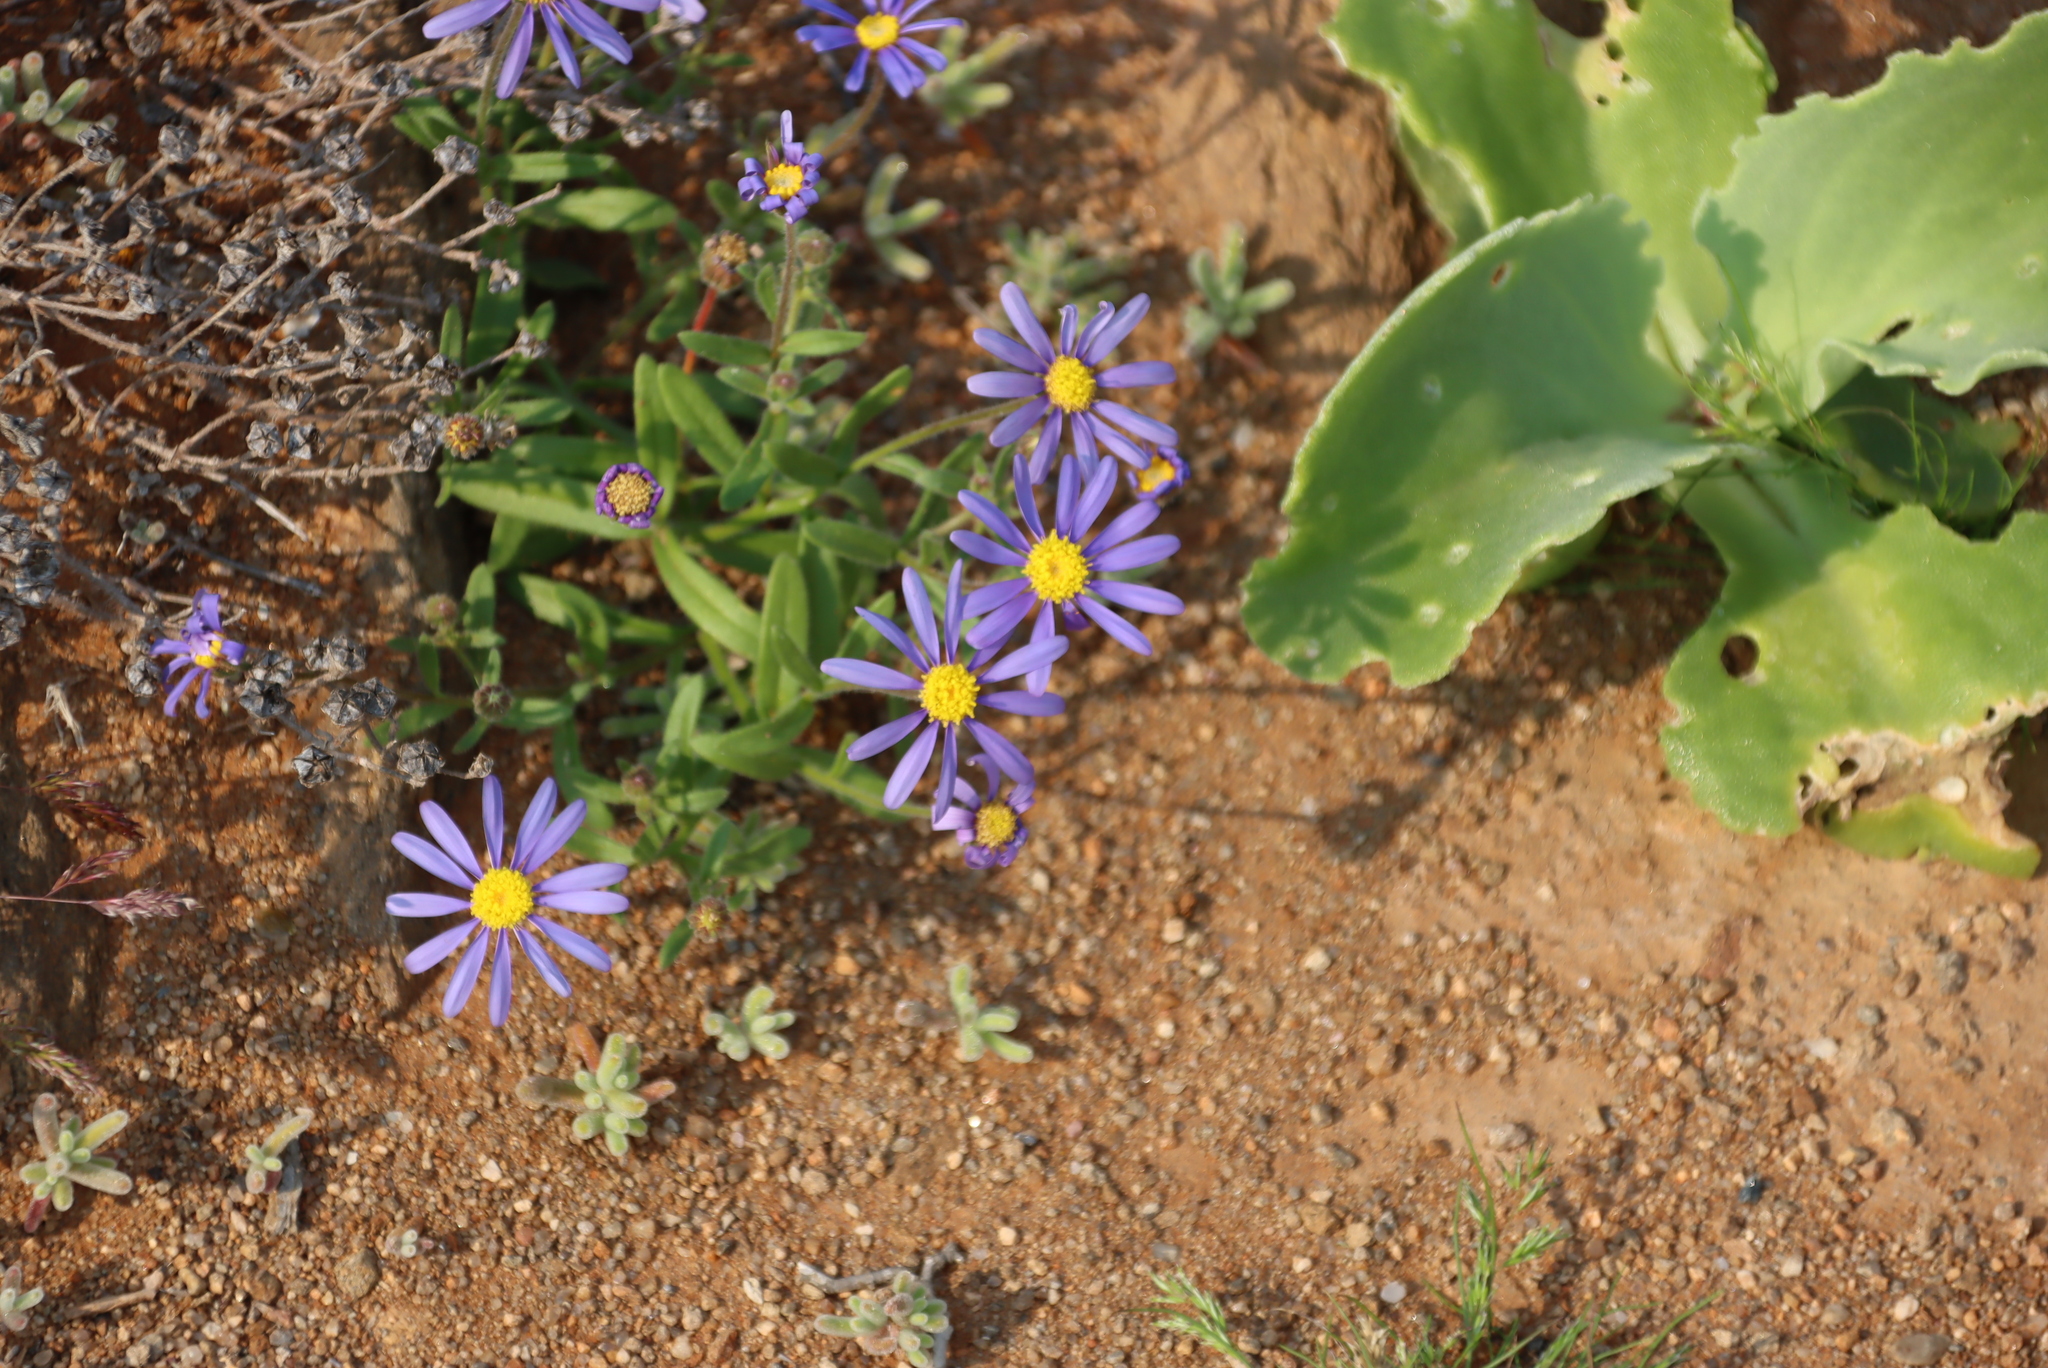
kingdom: Plantae
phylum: Tracheophyta
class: Magnoliopsida
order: Asterales
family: Asteraceae
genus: Amellus
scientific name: Amellus nanus
